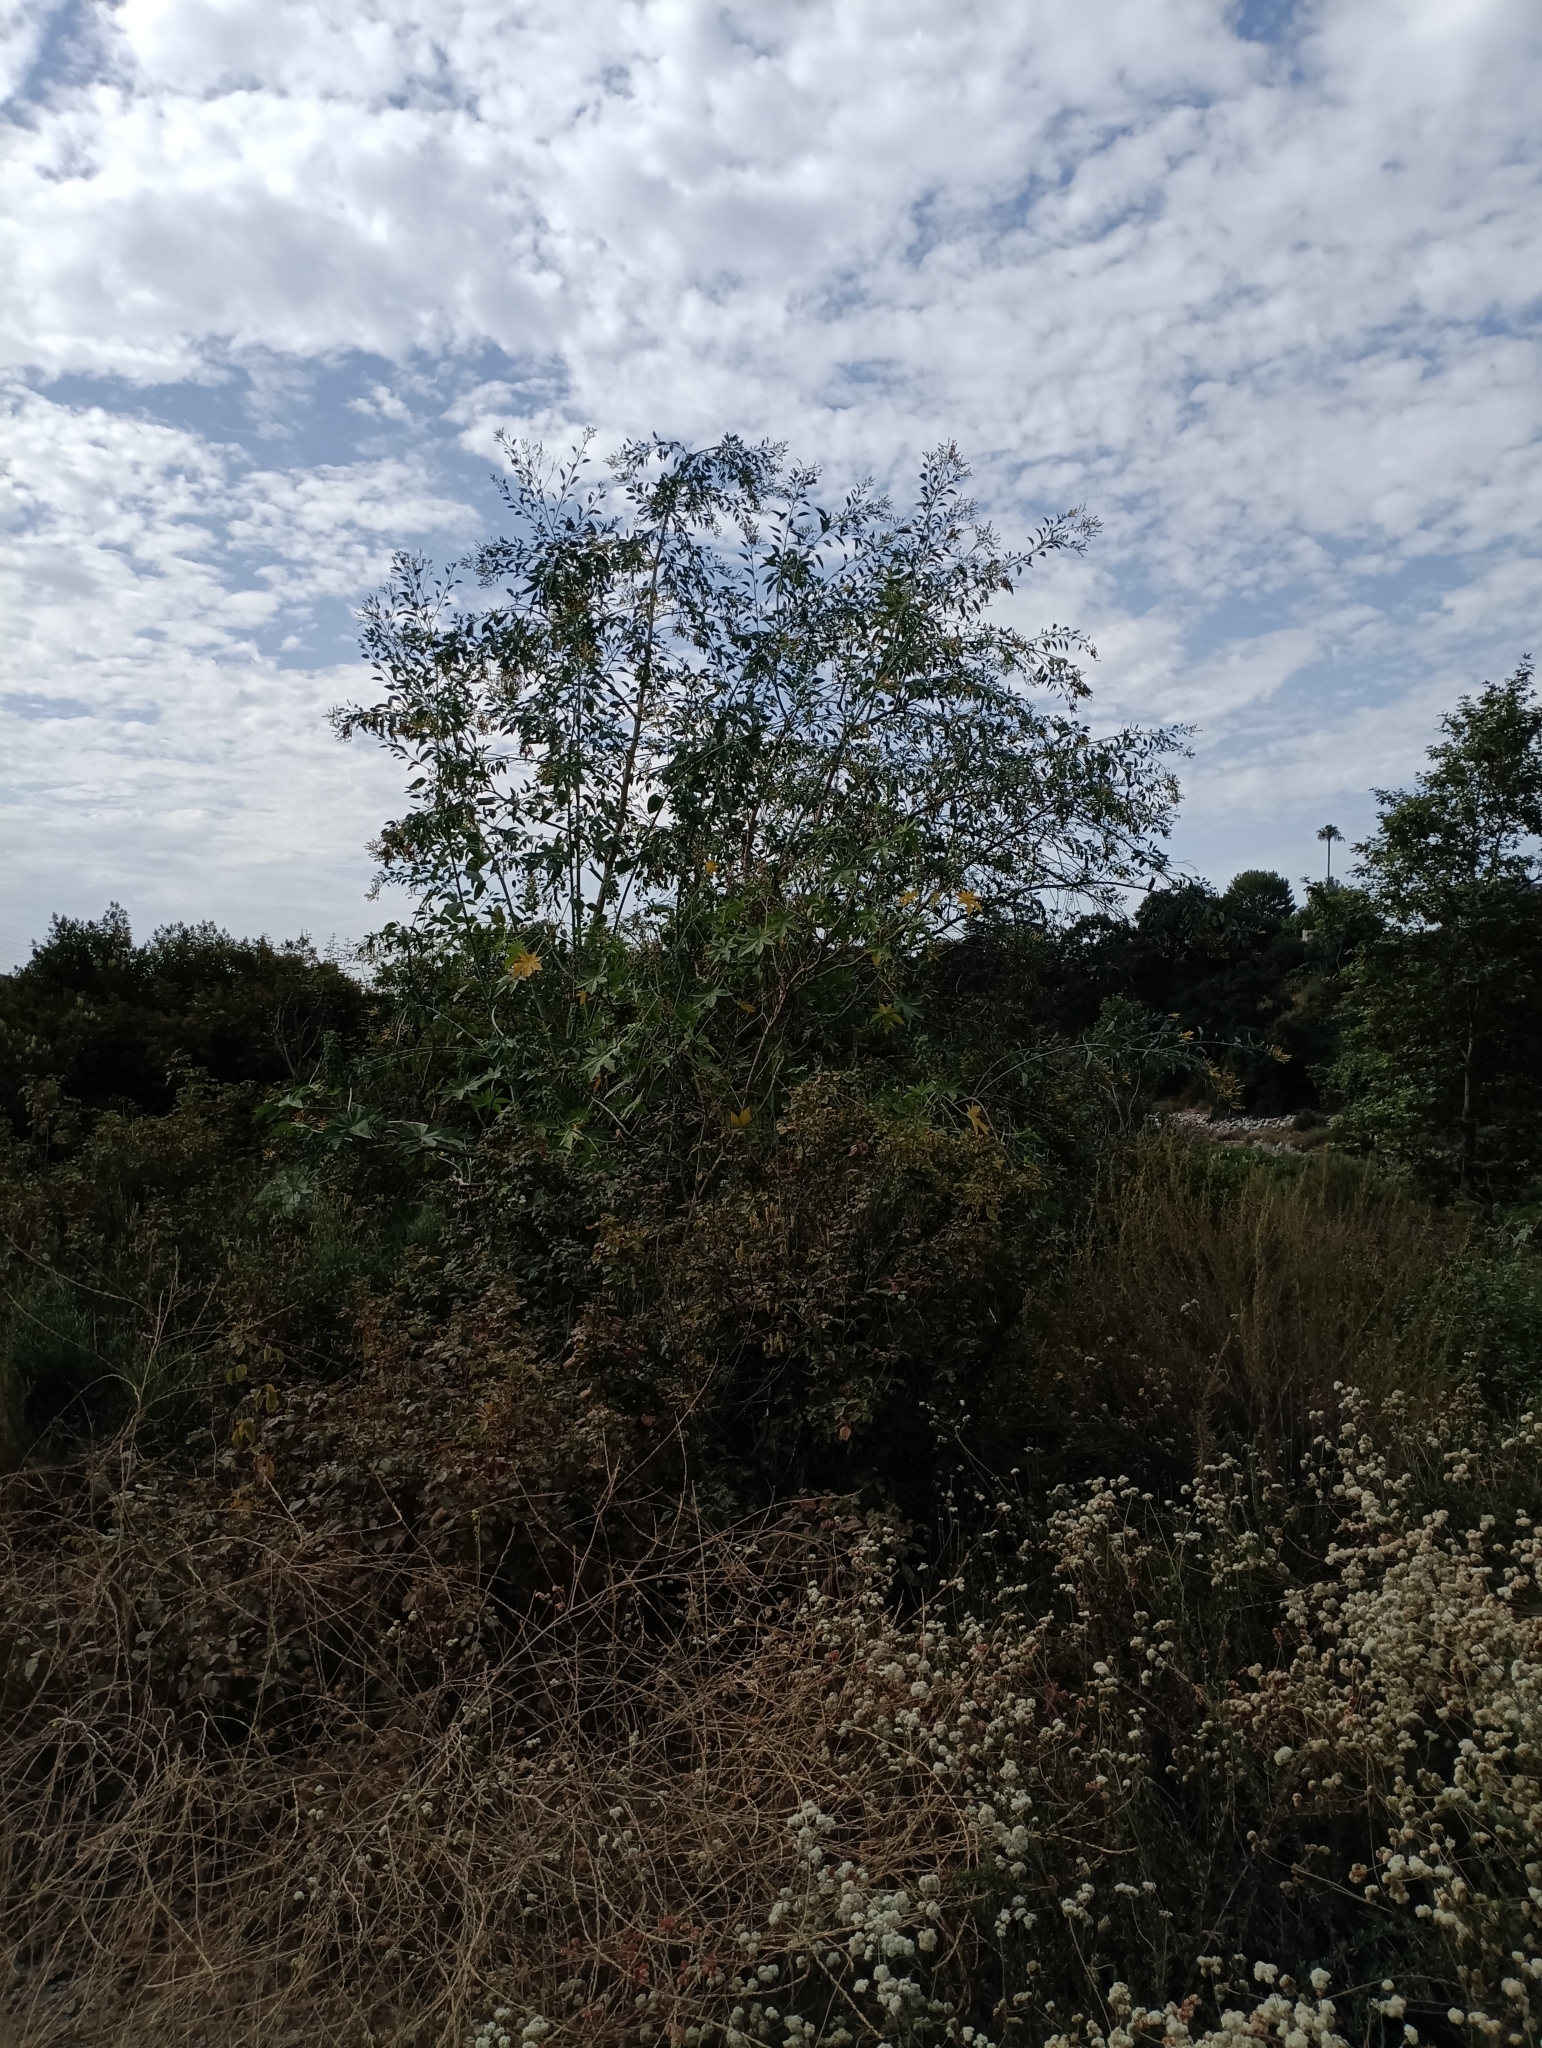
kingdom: Plantae
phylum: Tracheophyta
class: Magnoliopsida
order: Solanales
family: Solanaceae
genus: Nicotiana
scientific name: Nicotiana glauca
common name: Tree tobacco
